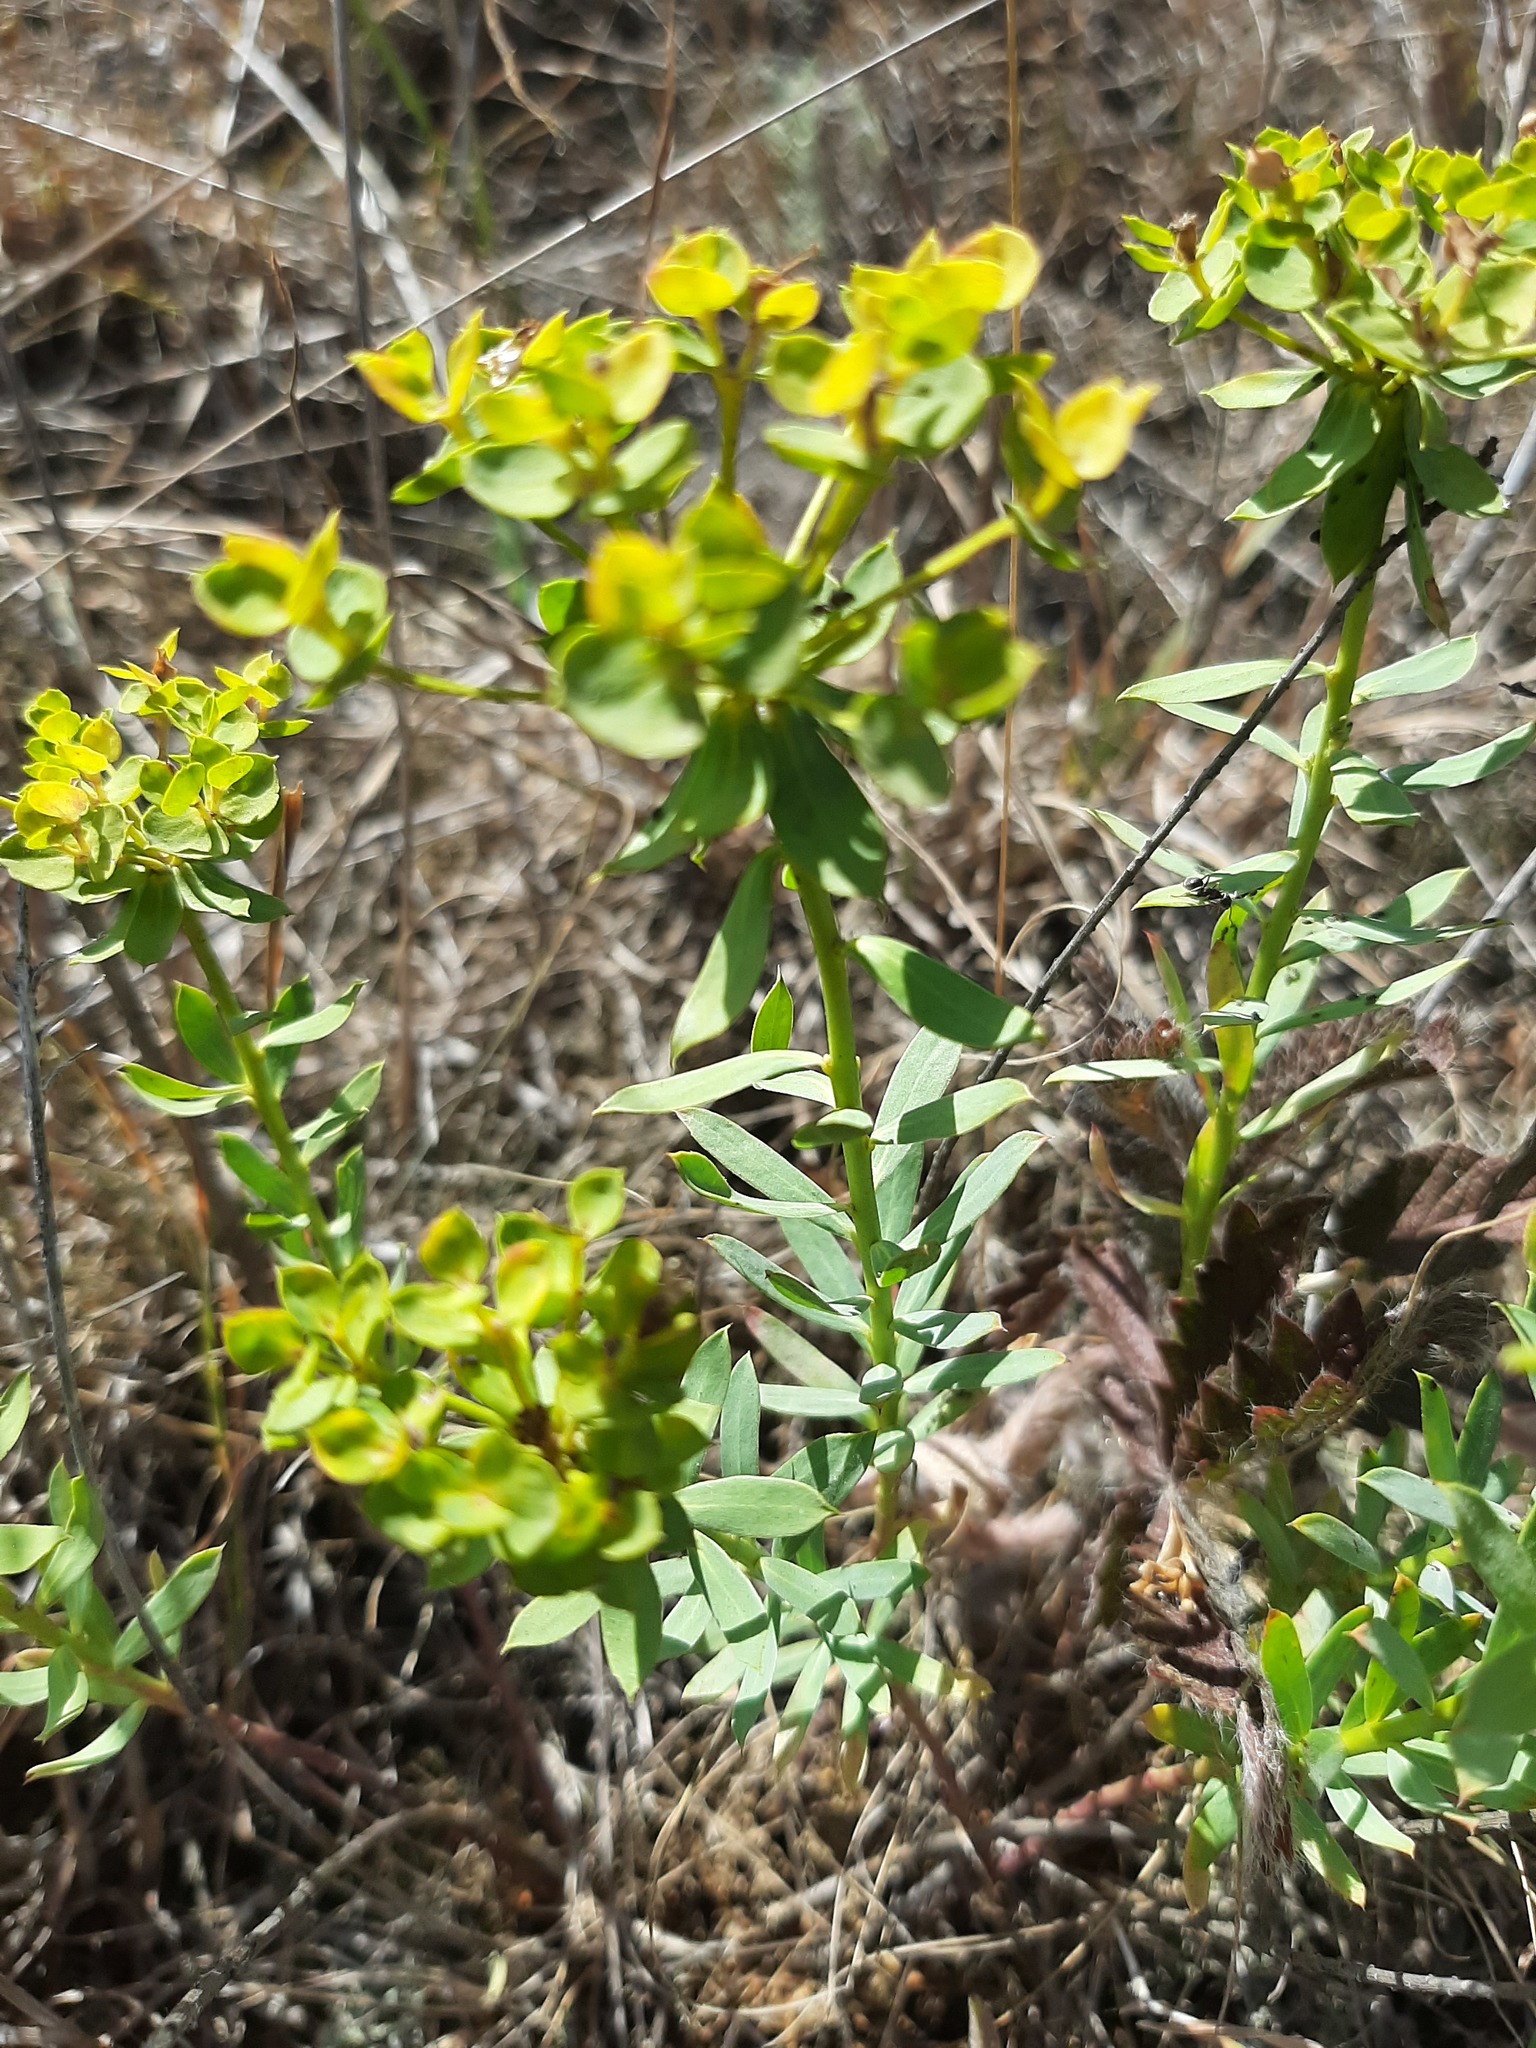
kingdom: Plantae
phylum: Tracheophyta
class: Magnoliopsida
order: Malpighiales
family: Euphorbiaceae
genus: Euphorbia
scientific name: Euphorbia seguieriana
